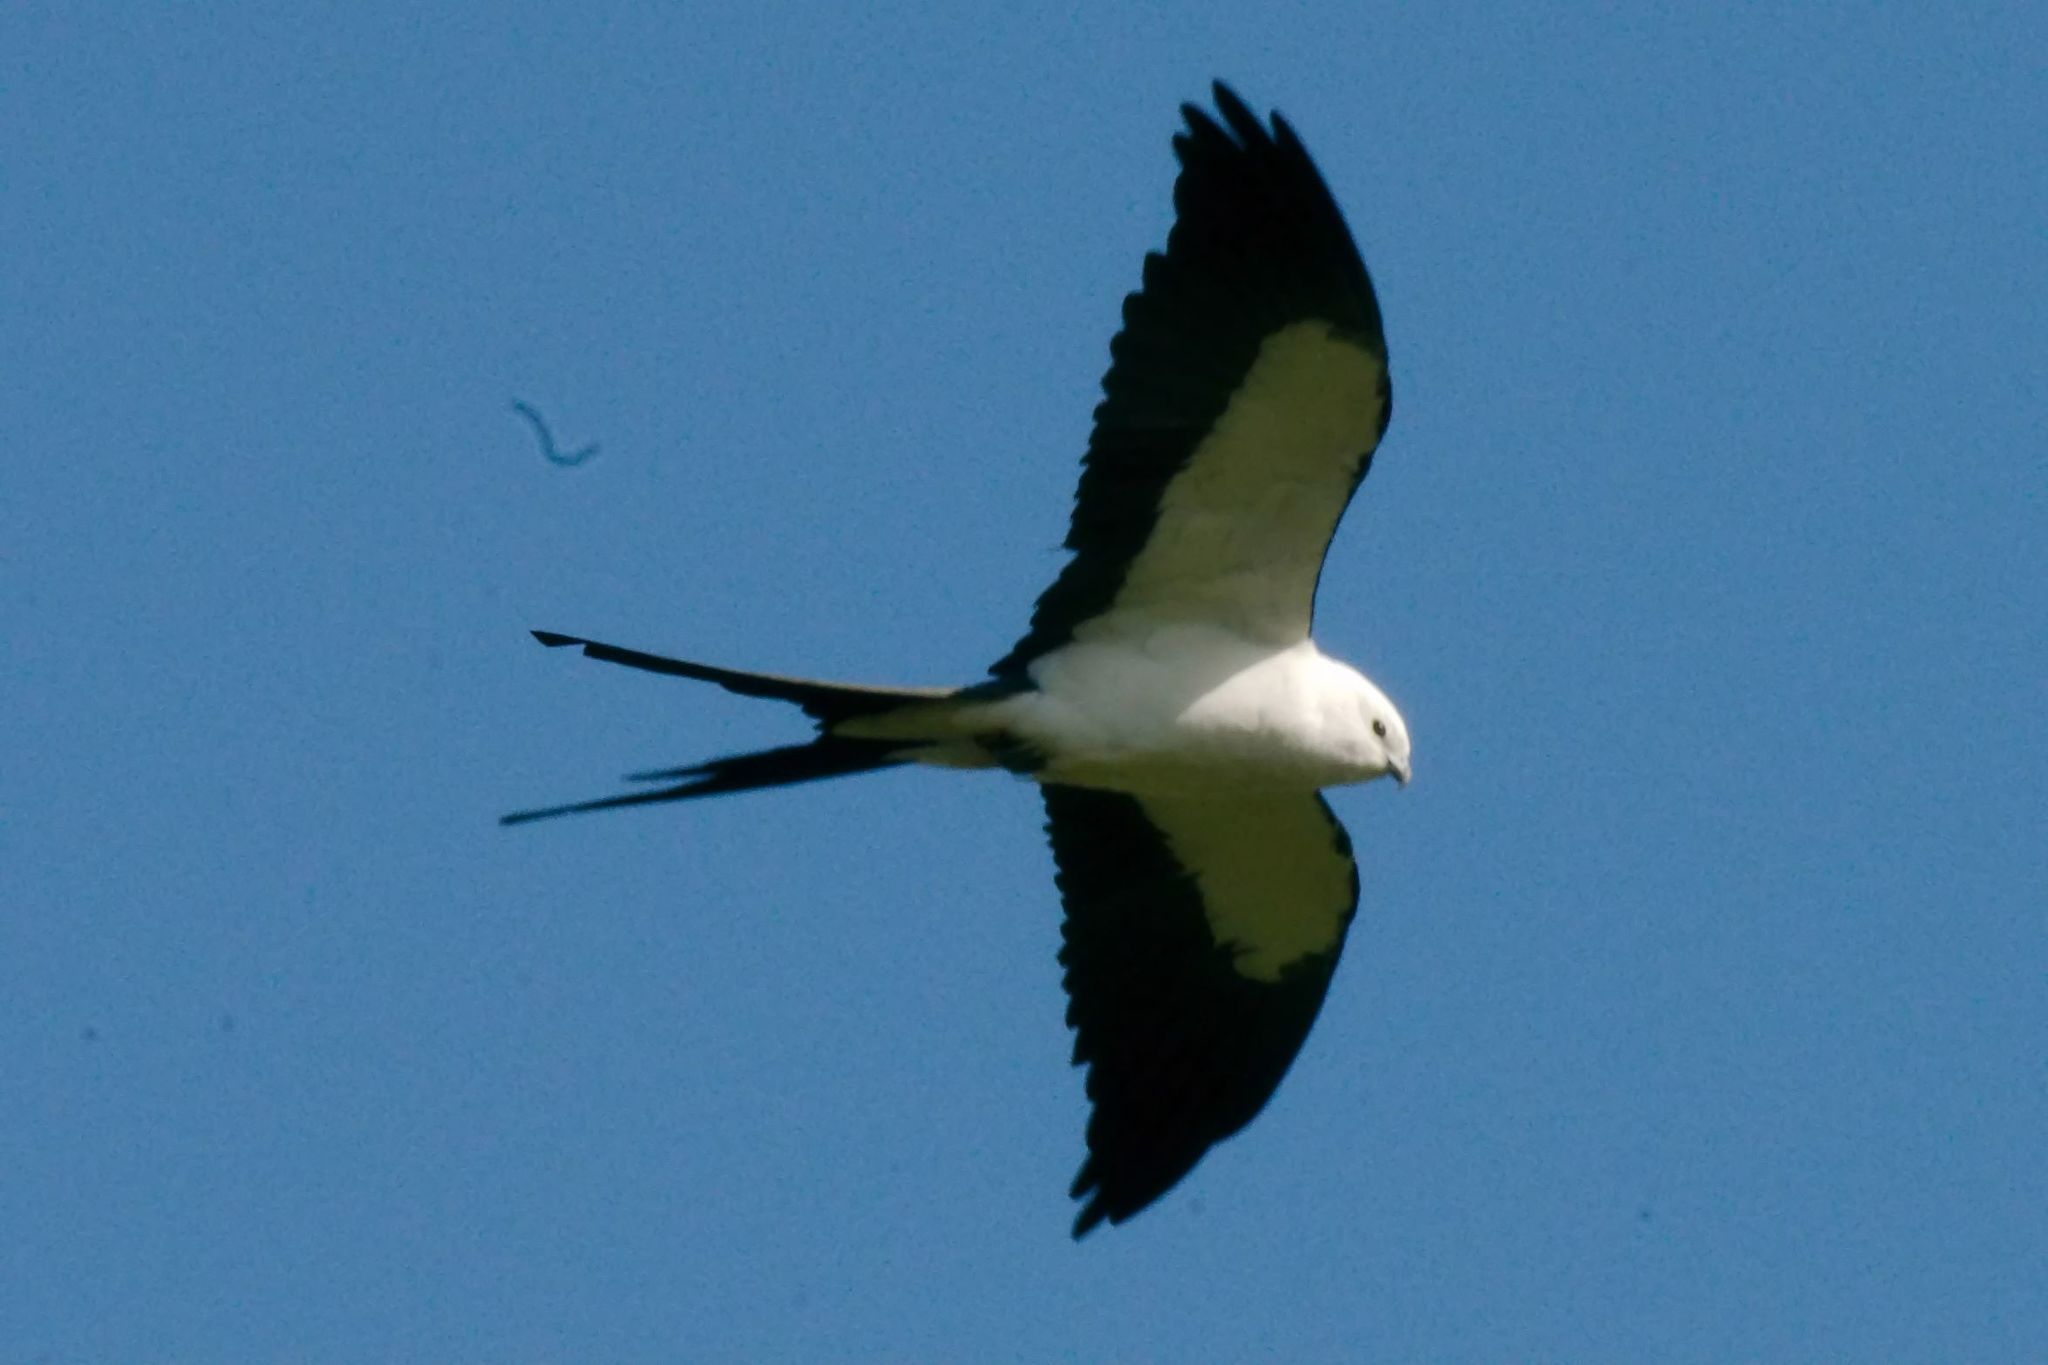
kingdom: Animalia
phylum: Chordata
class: Aves
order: Accipitriformes
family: Accipitridae
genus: Elanoides
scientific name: Elanoides forficatus
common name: Swallow-tailed kite
